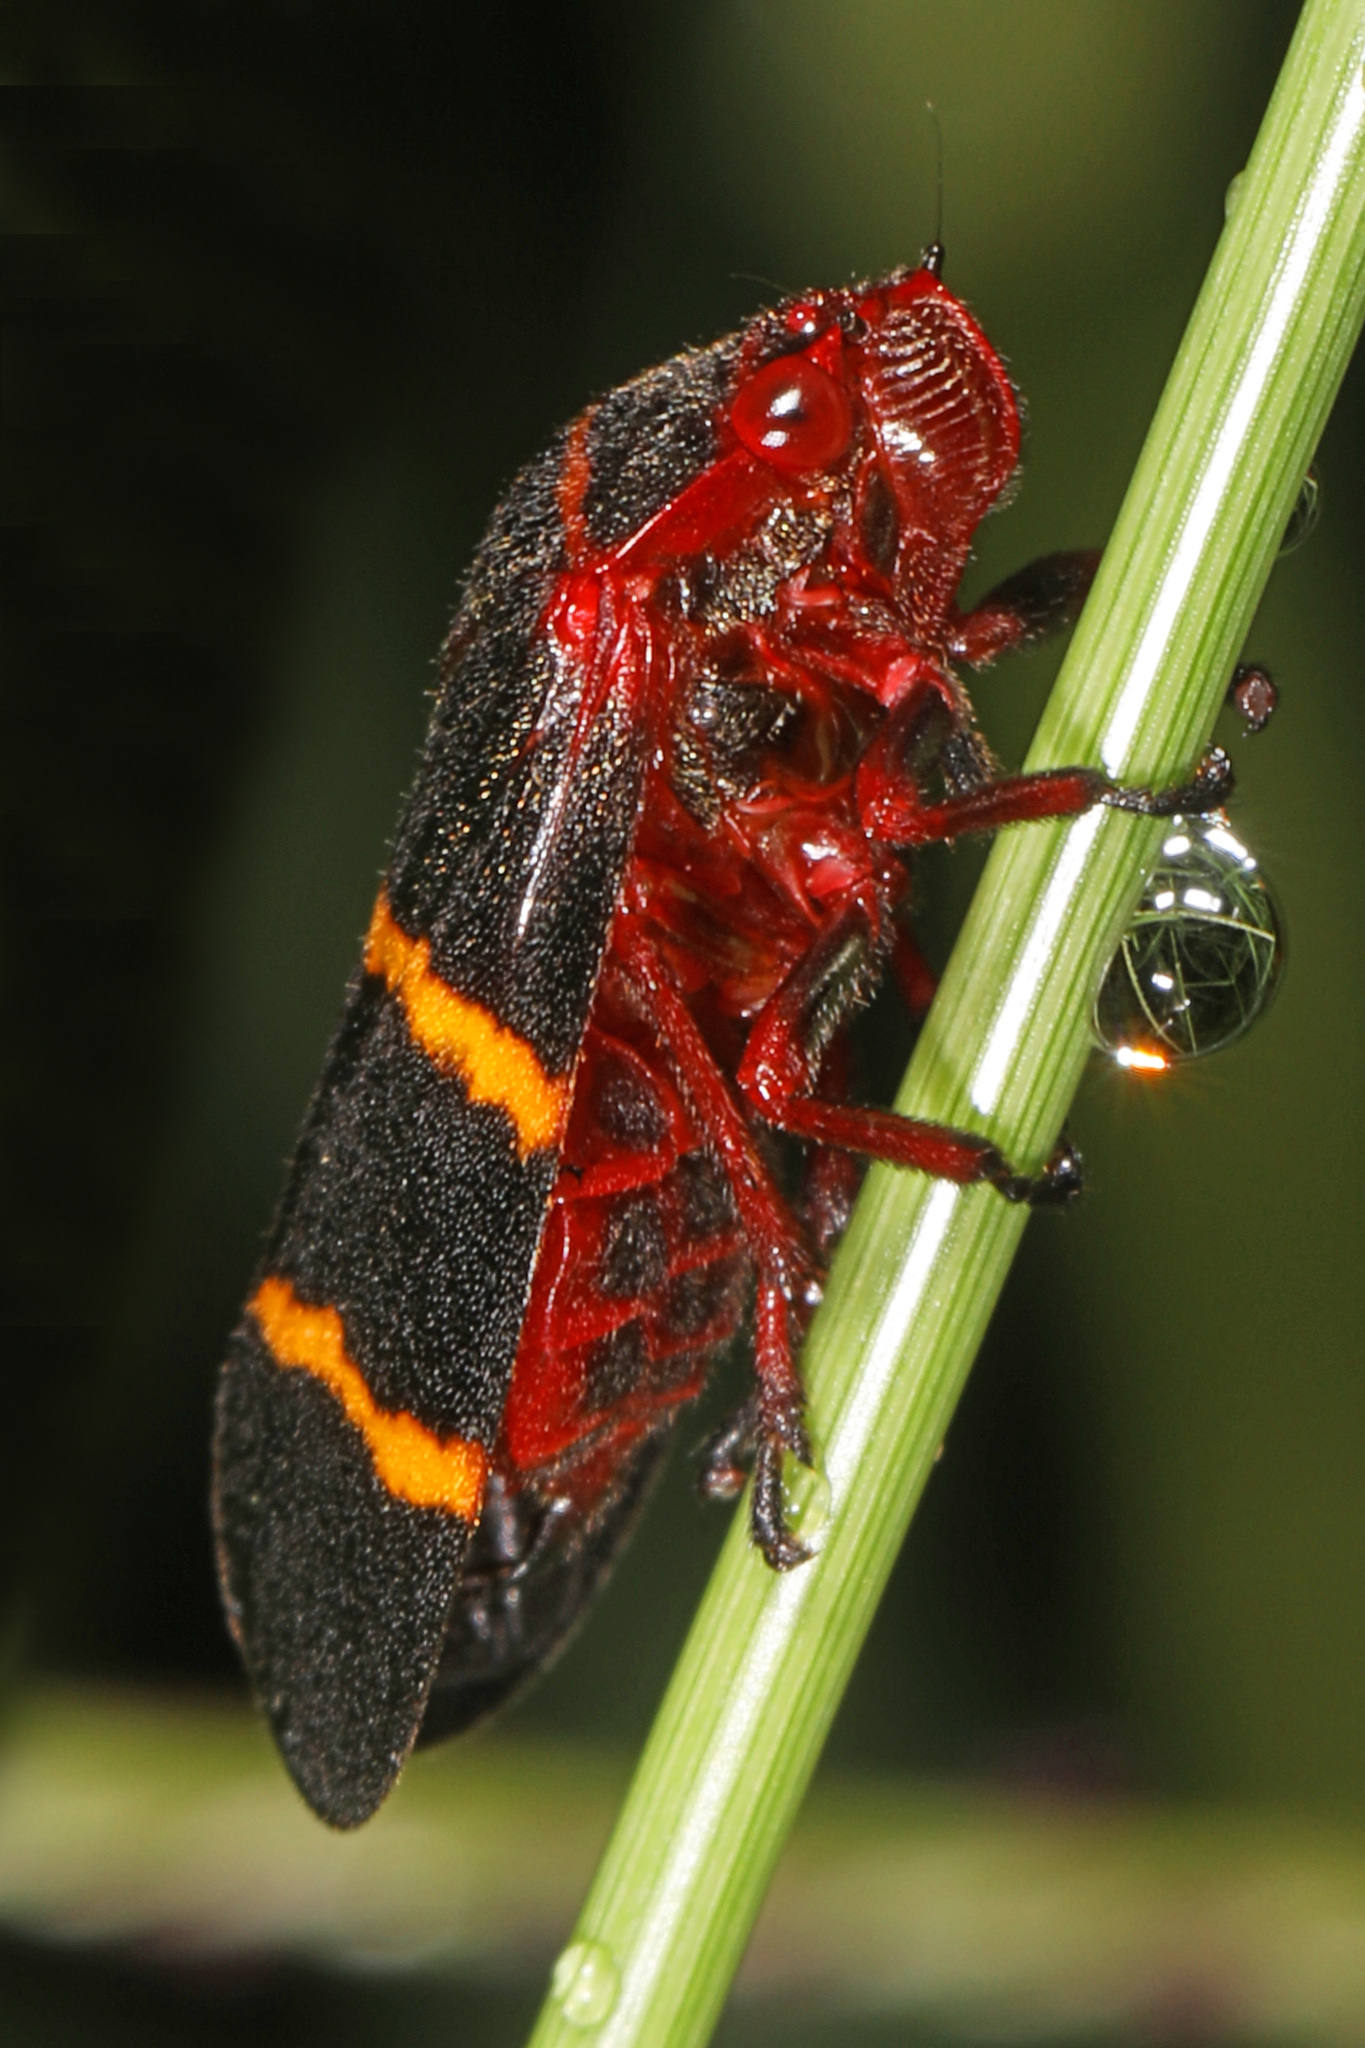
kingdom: Animalia
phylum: Arthropoda
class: Insecta
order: Hemiptera
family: Cercopidae
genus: Prosapia
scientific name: Prosapia bicincta
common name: Twolined spittlebug
